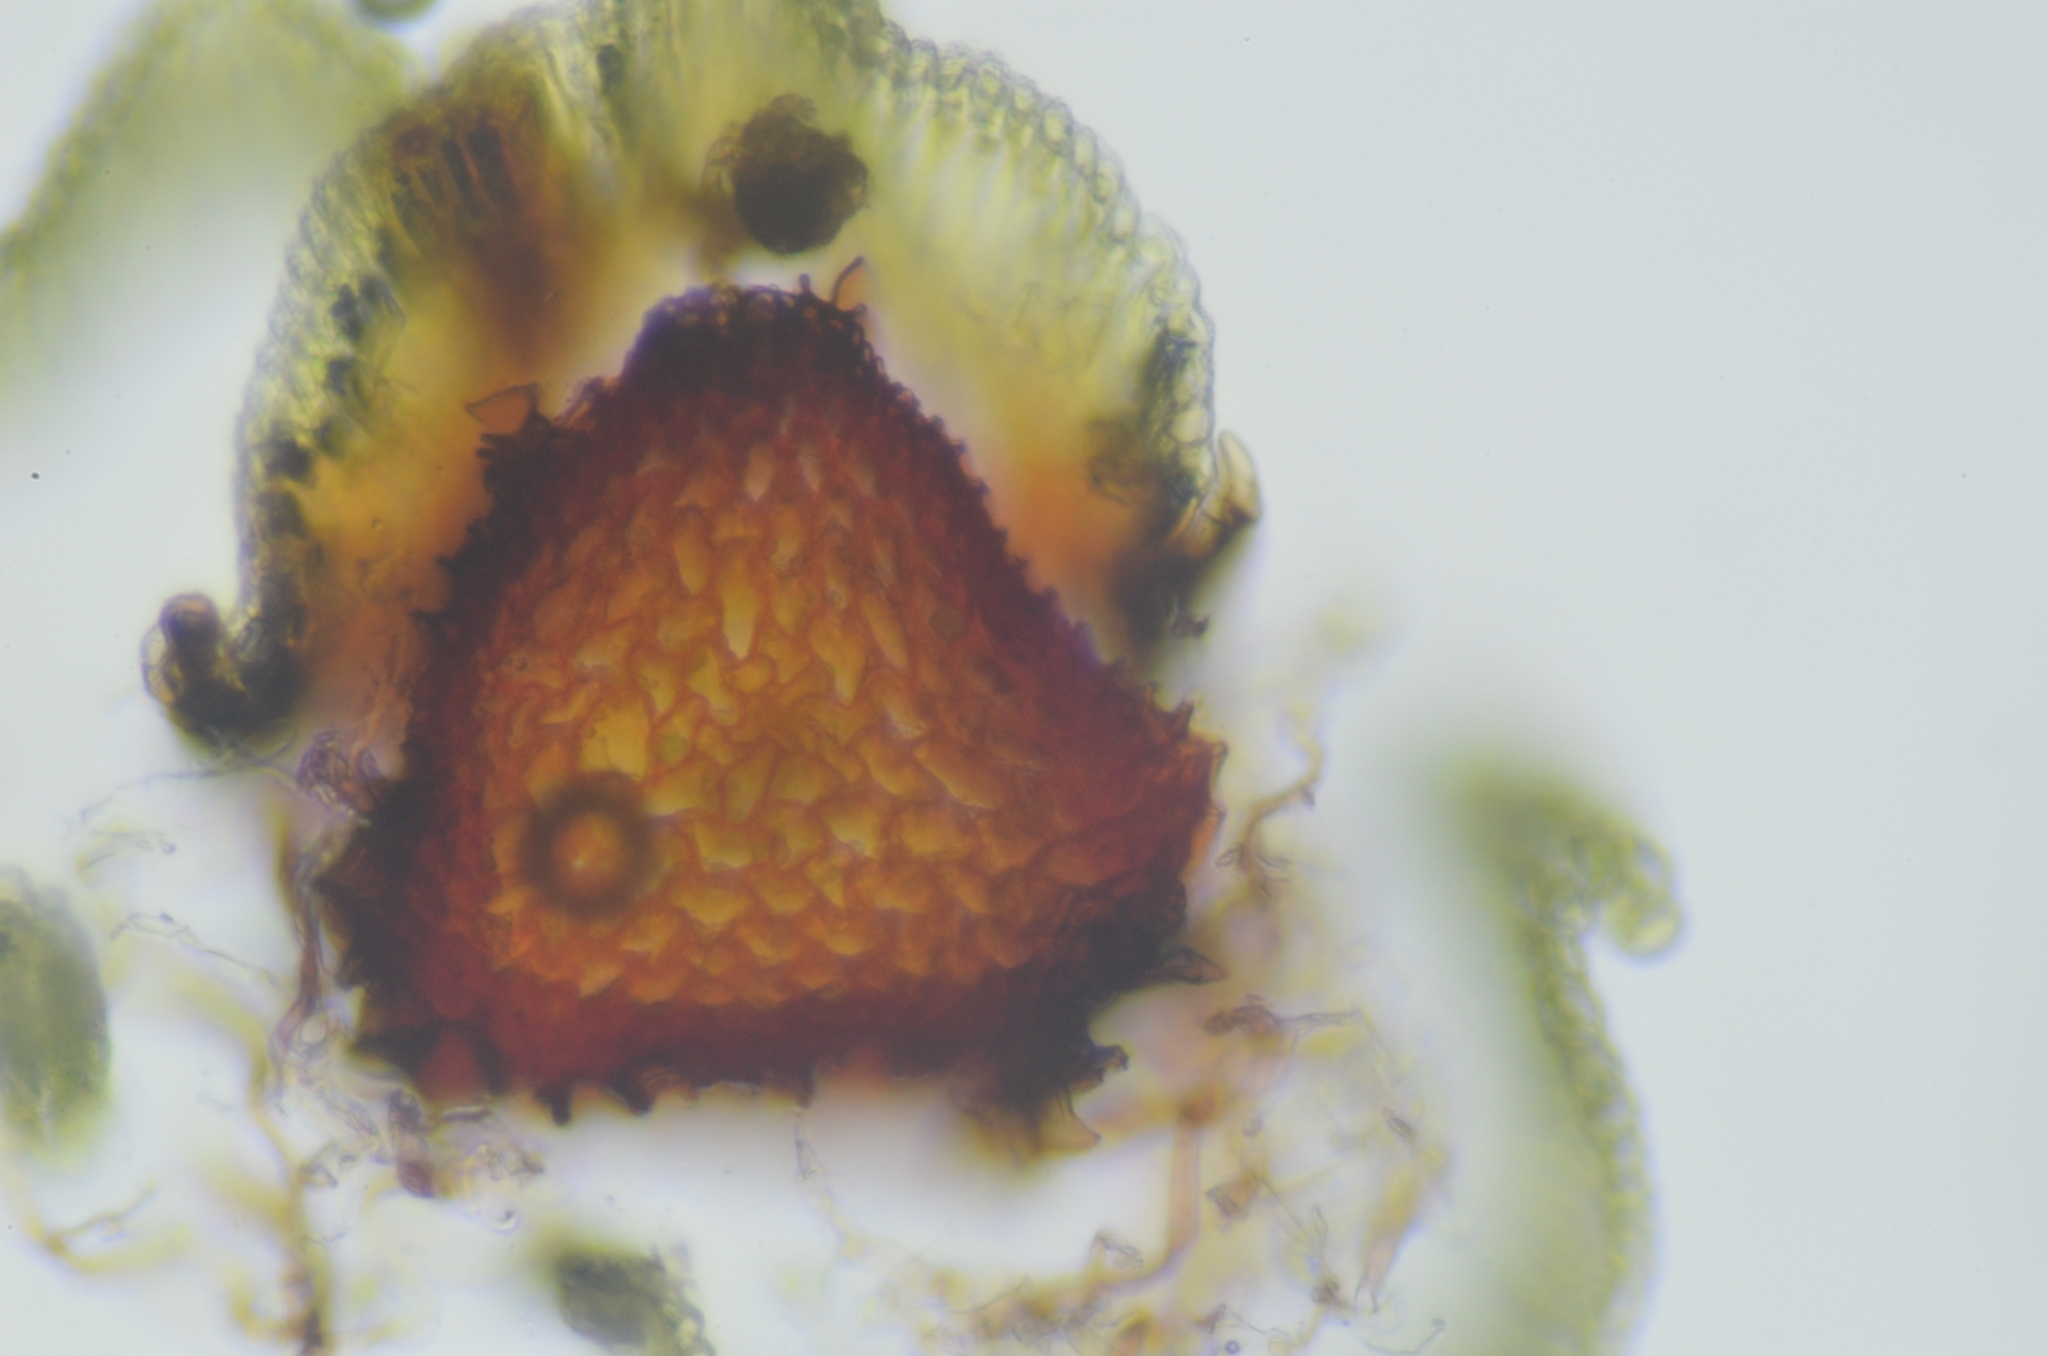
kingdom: Plantae
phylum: Bryophyta
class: Bryopsida
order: Bartramiales
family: Bartramiaceae
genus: Plagiopus
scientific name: Plagiopus oederianus
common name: Oeder's apple moss
